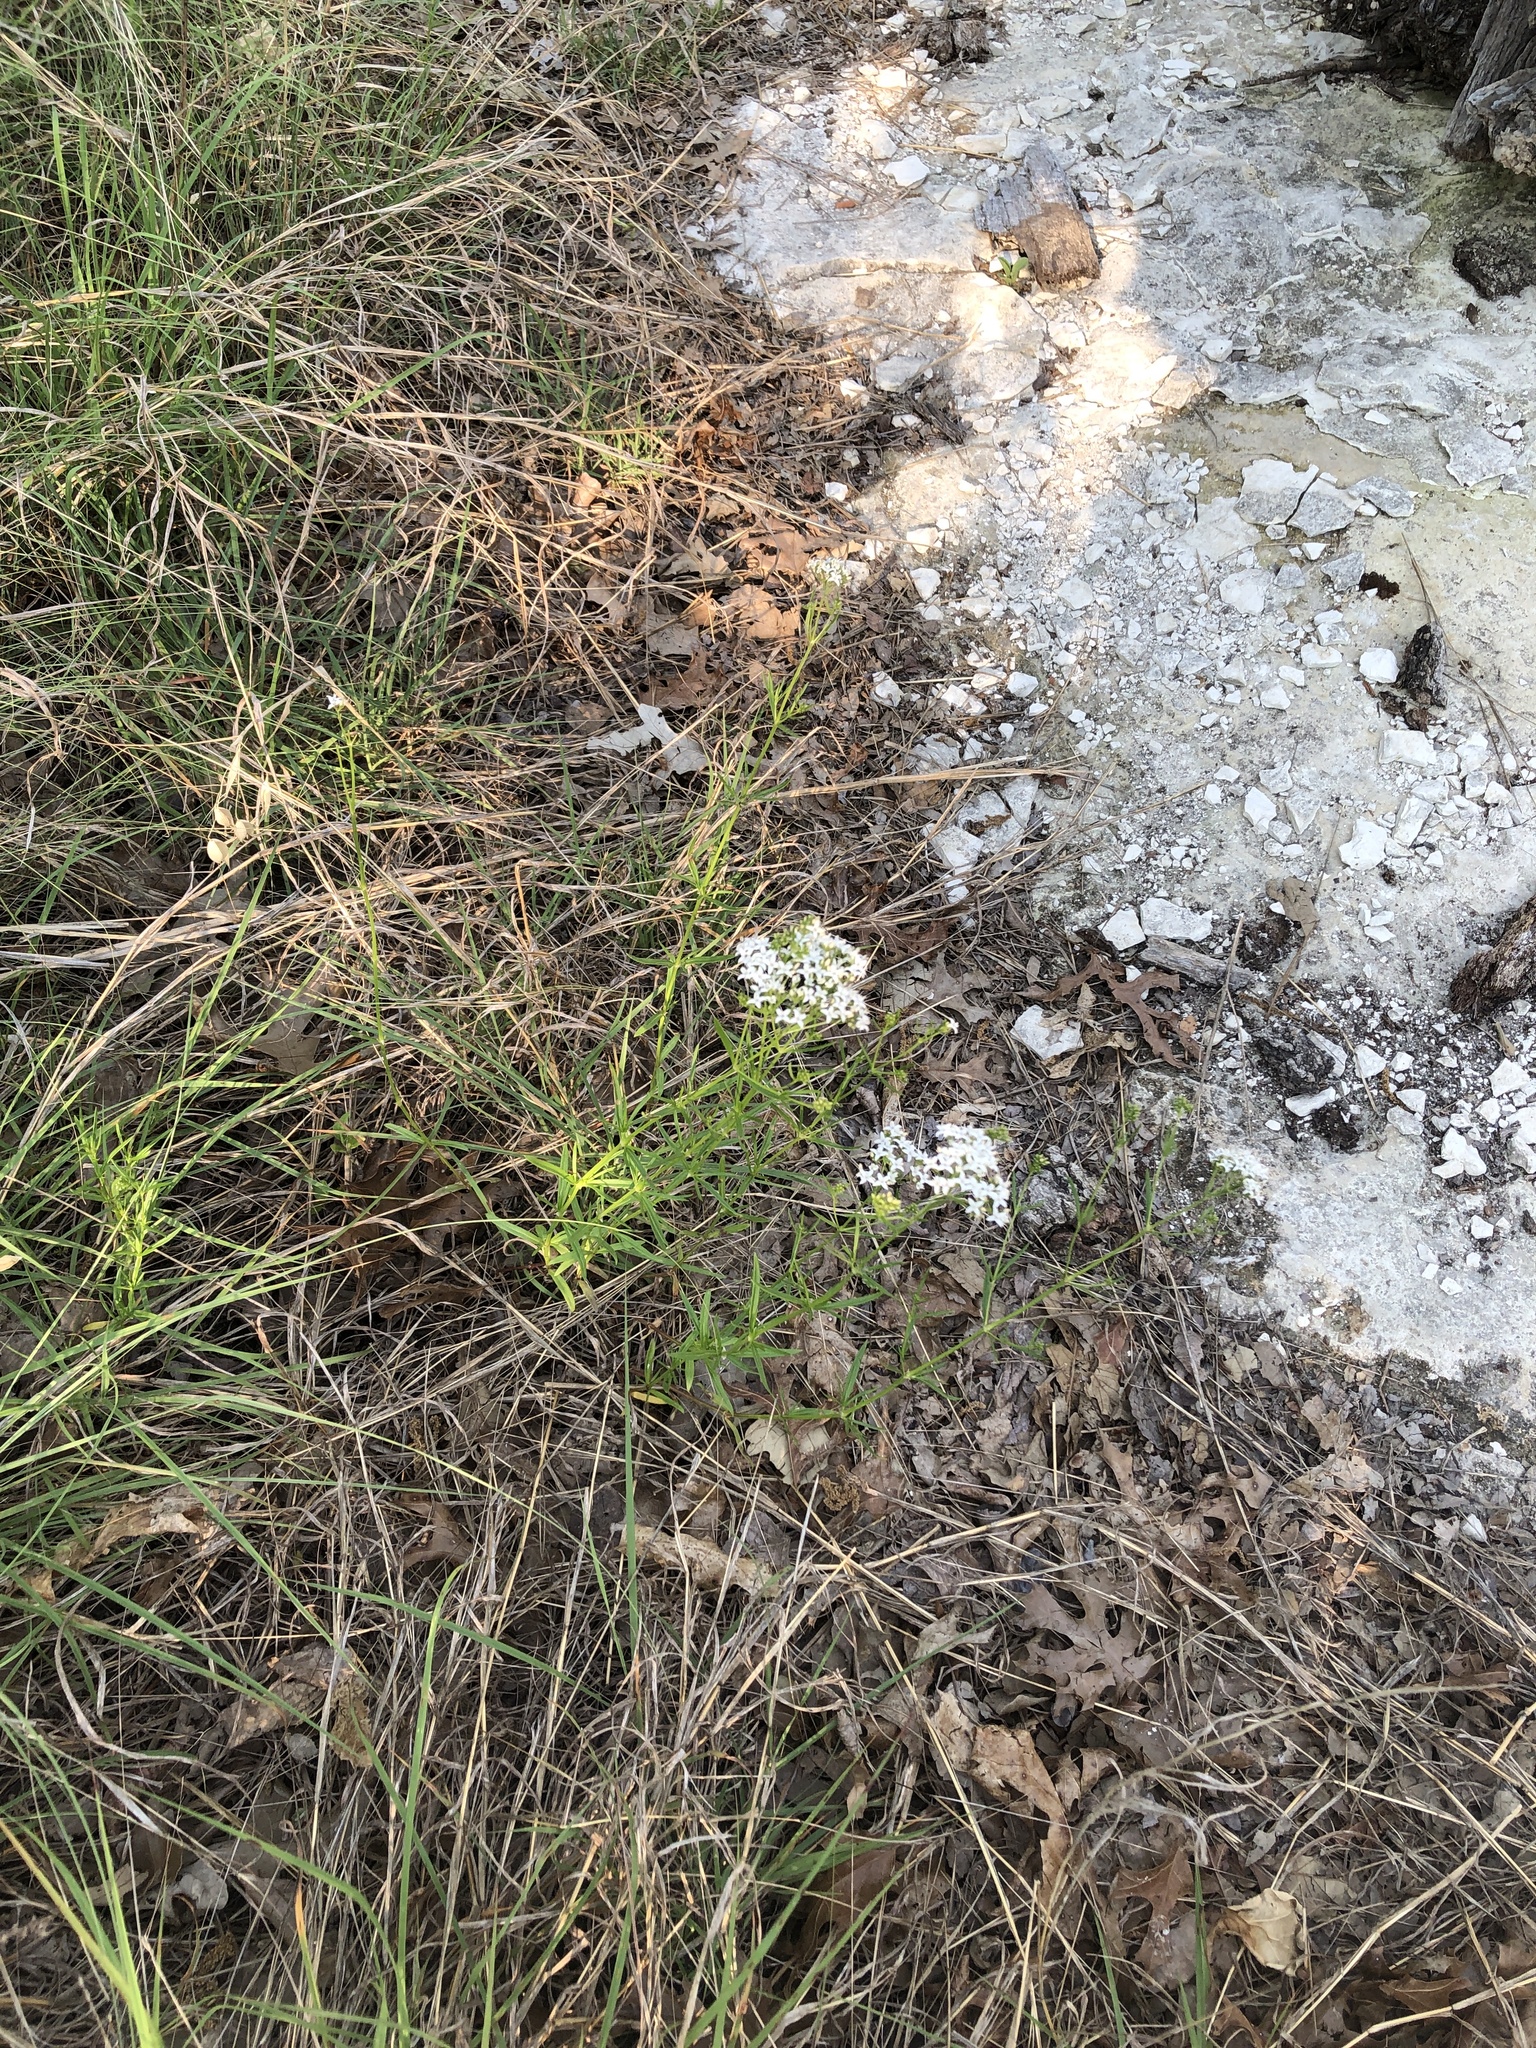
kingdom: Plantae
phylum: Tracheophyta
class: Magnoliopsida
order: Gentianales
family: Rubiaceae
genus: Stenaria
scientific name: Stenaria nigricans
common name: Diamondflowers
